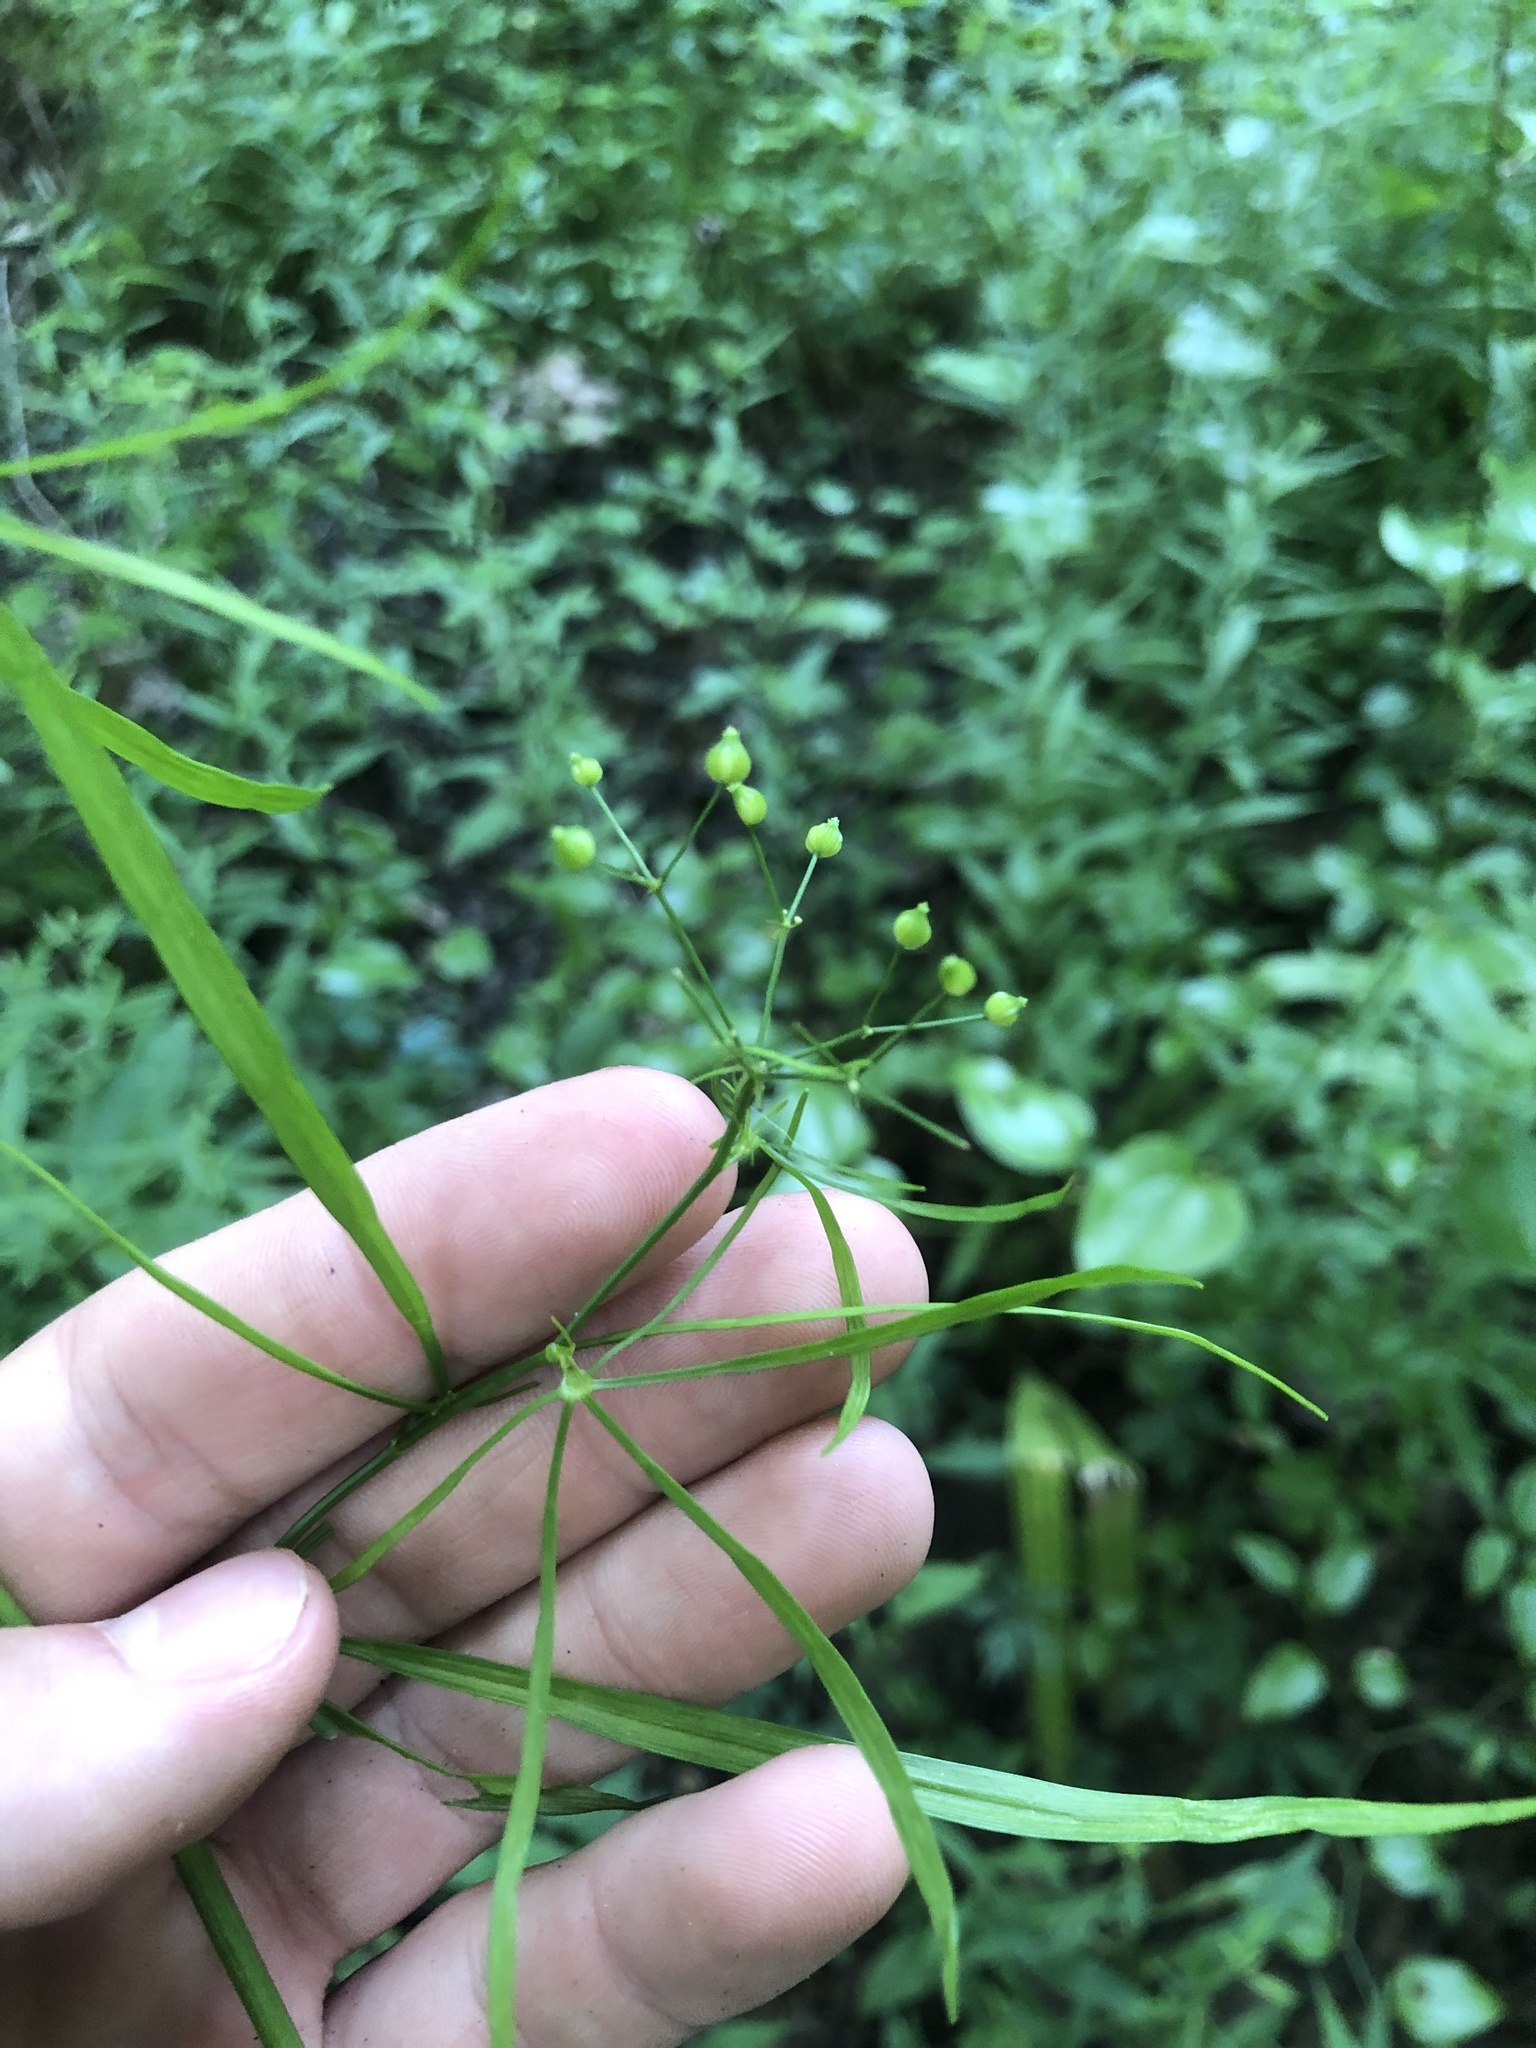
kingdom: Plantae
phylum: Tracheophyta
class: Magnoliopsida
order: Apiales
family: Apiaceae
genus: Cynosciadium
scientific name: Cynosciadium digitatum
